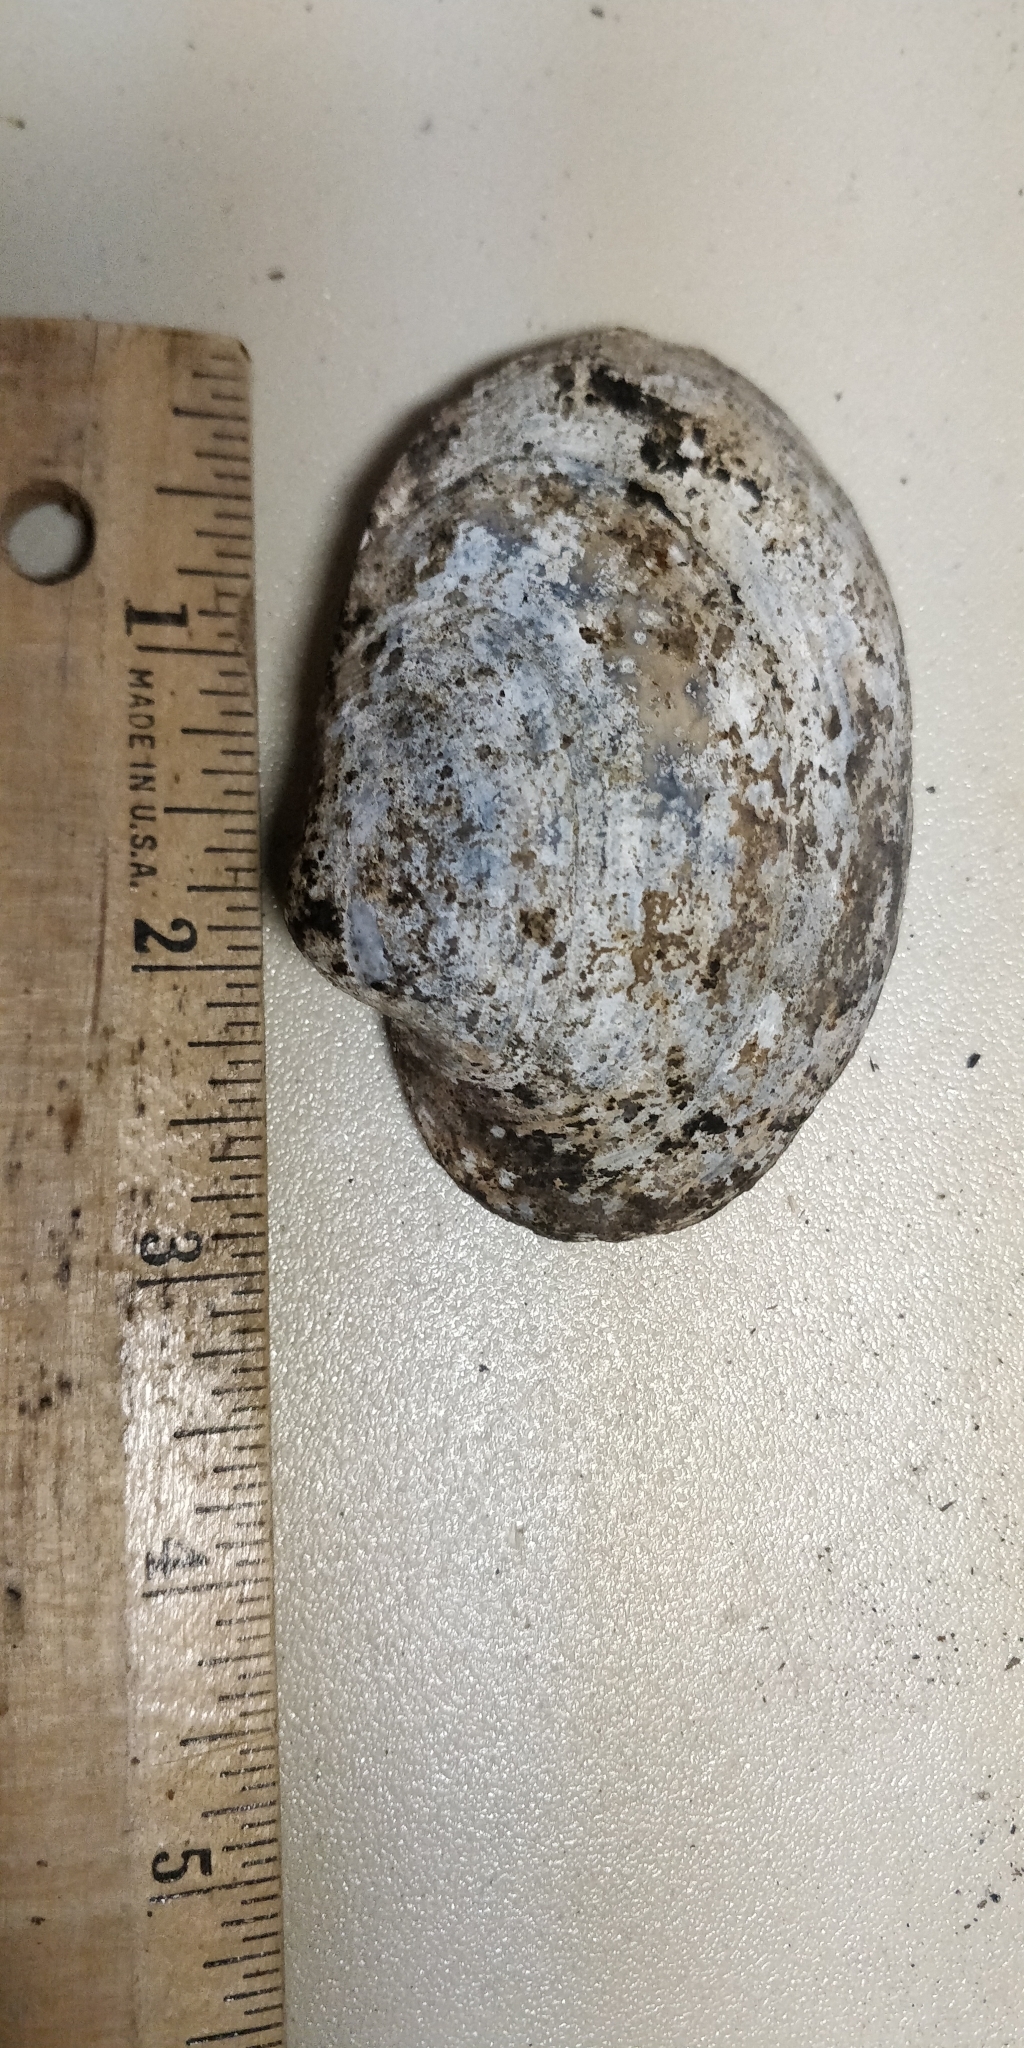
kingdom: Animalia
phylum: Mollusca
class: Bivalvia
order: Unionida
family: Unionidae
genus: Lampsilis
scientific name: Lampsilis cardium
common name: Plain pocketbook
